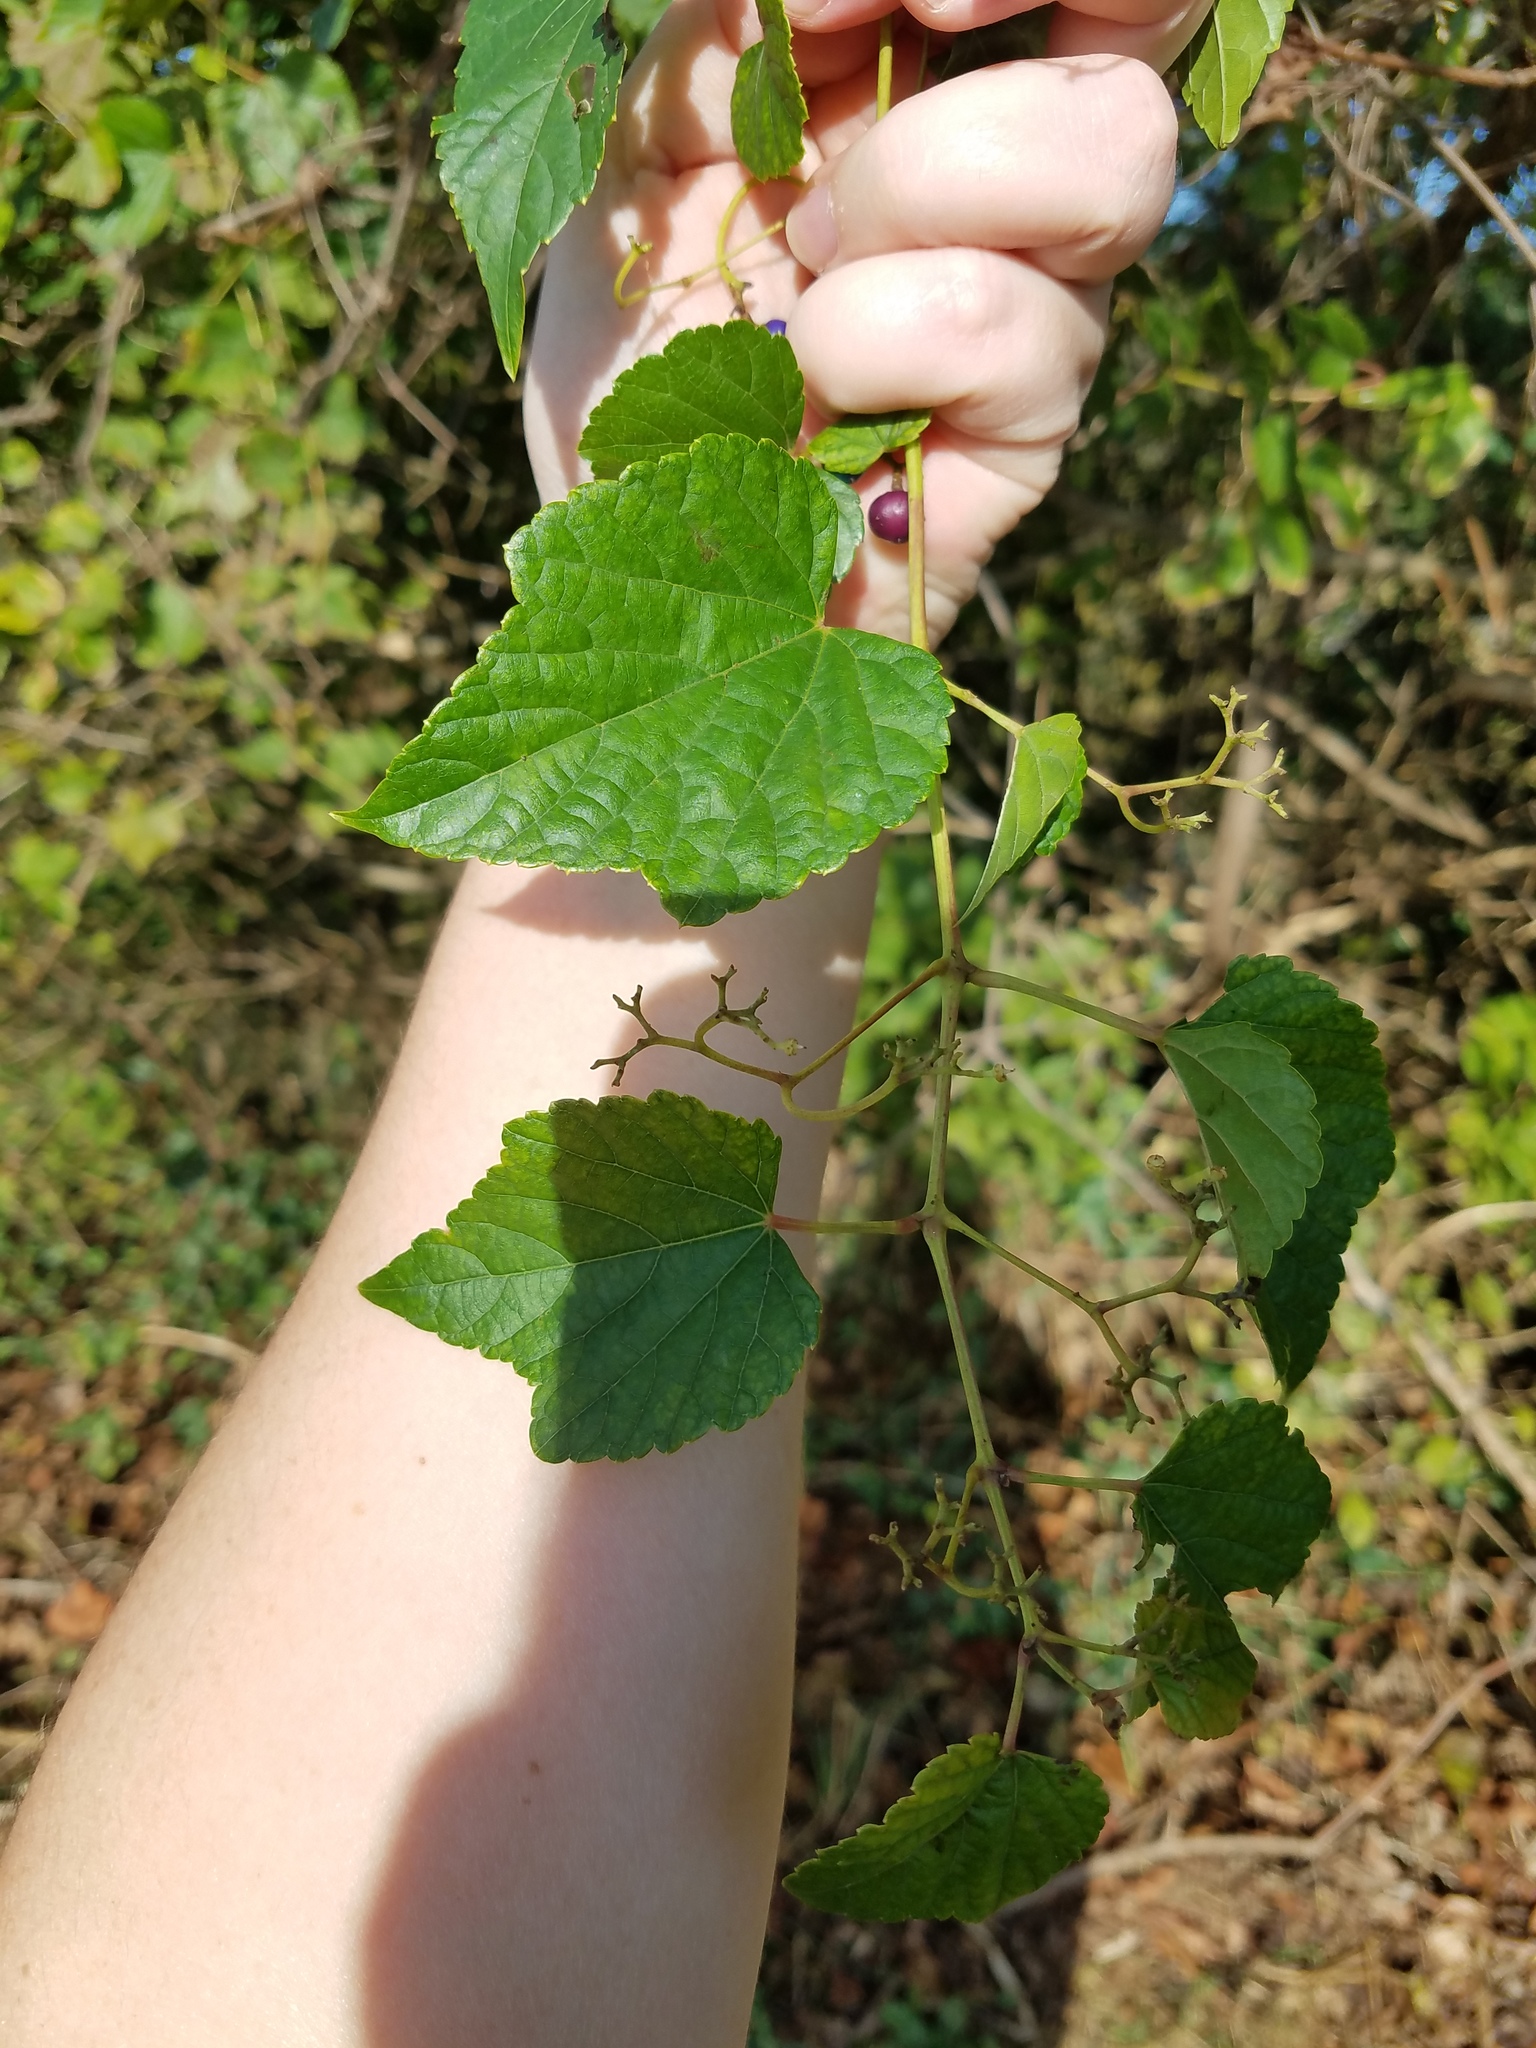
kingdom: Plantae
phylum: Tracheophyta
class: Magnoliopsida
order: Vitales
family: Vitaceae
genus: Ampelopsis
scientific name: Ampelopsis glandulosa
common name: Amur peppervine
